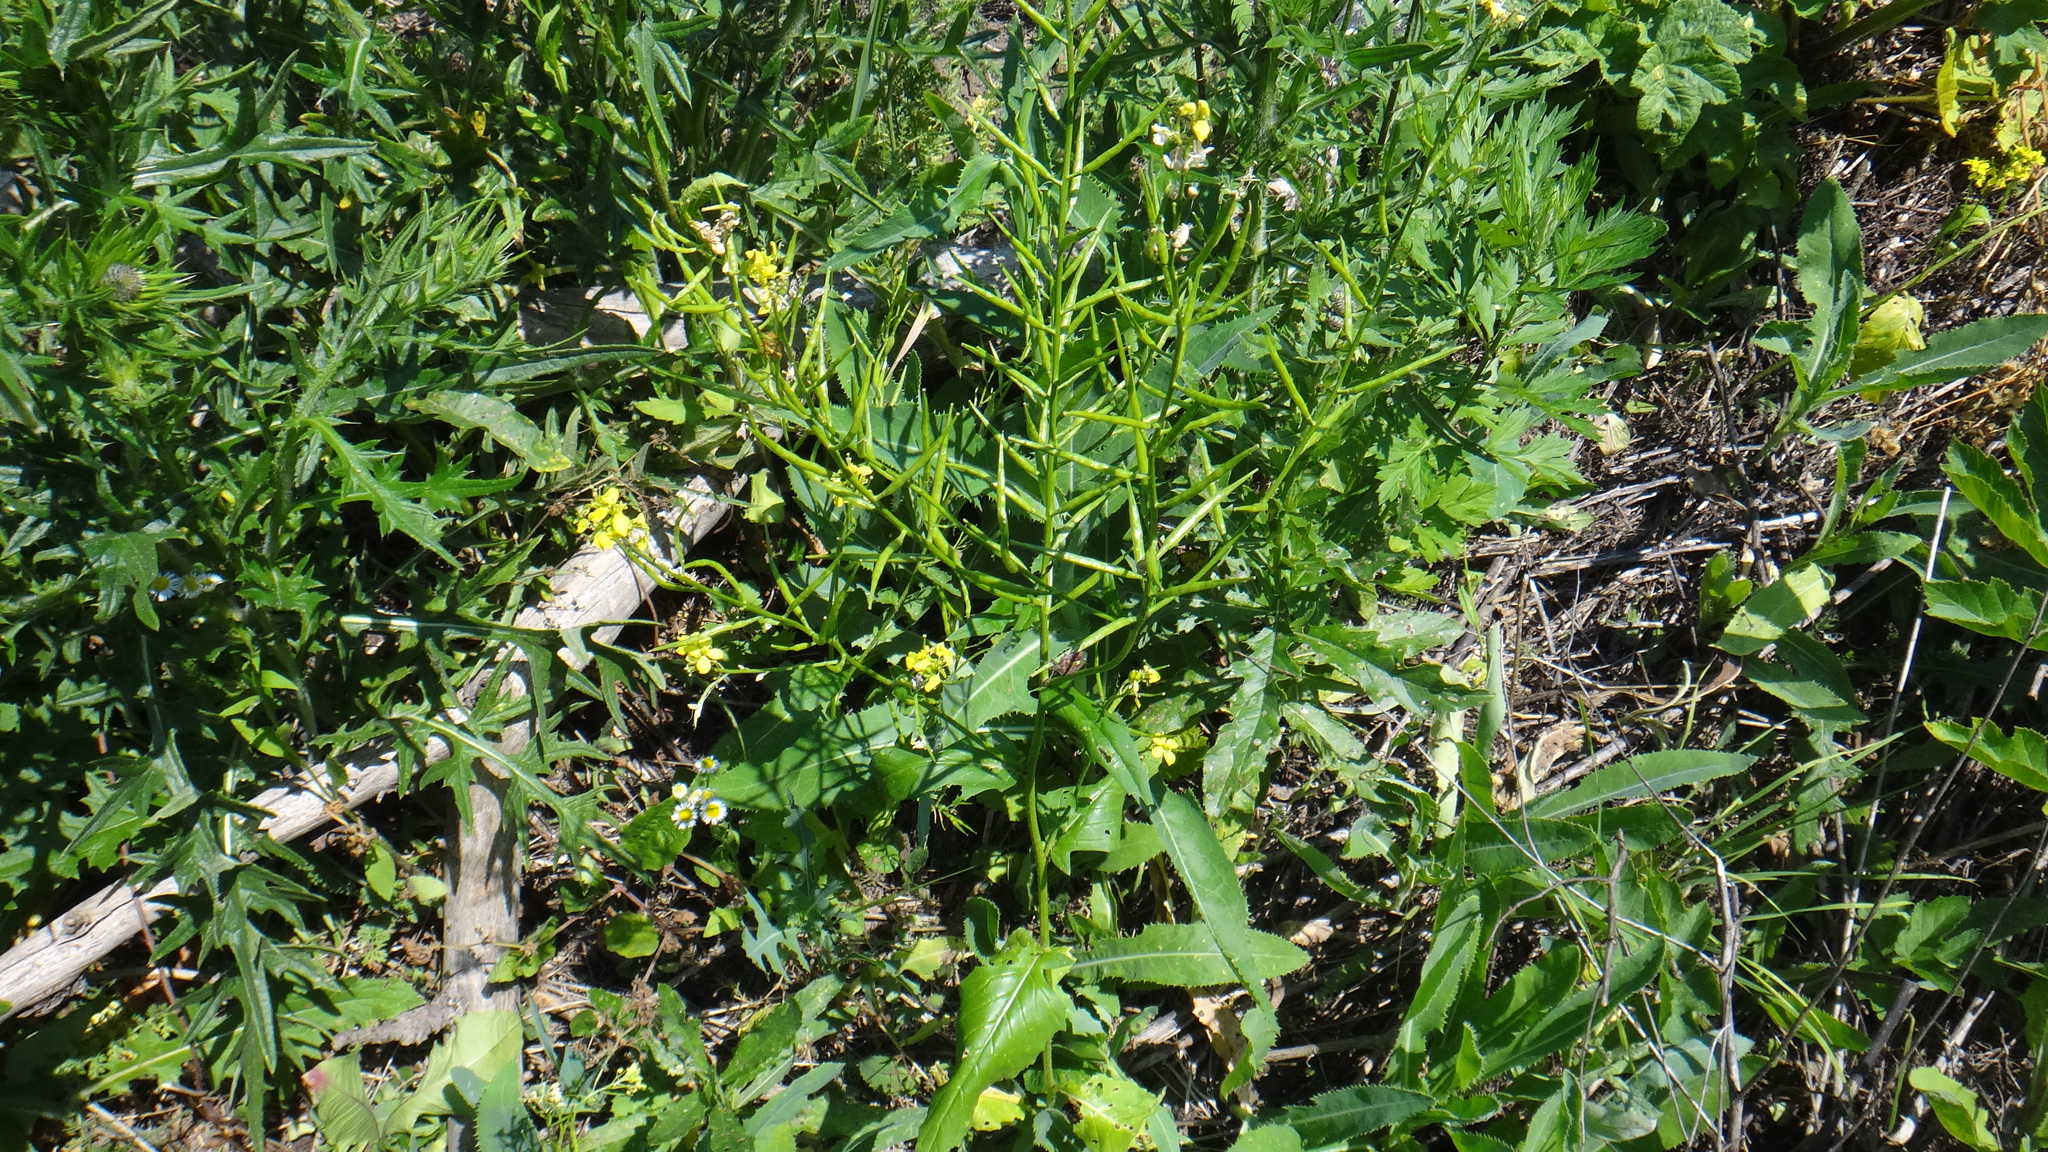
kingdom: Plantae
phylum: Tracheophyta
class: Magnoliopsida
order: Brassicales
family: Brassicaceae
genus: Sinapis
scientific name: Sinapis arvensis
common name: Charlock
